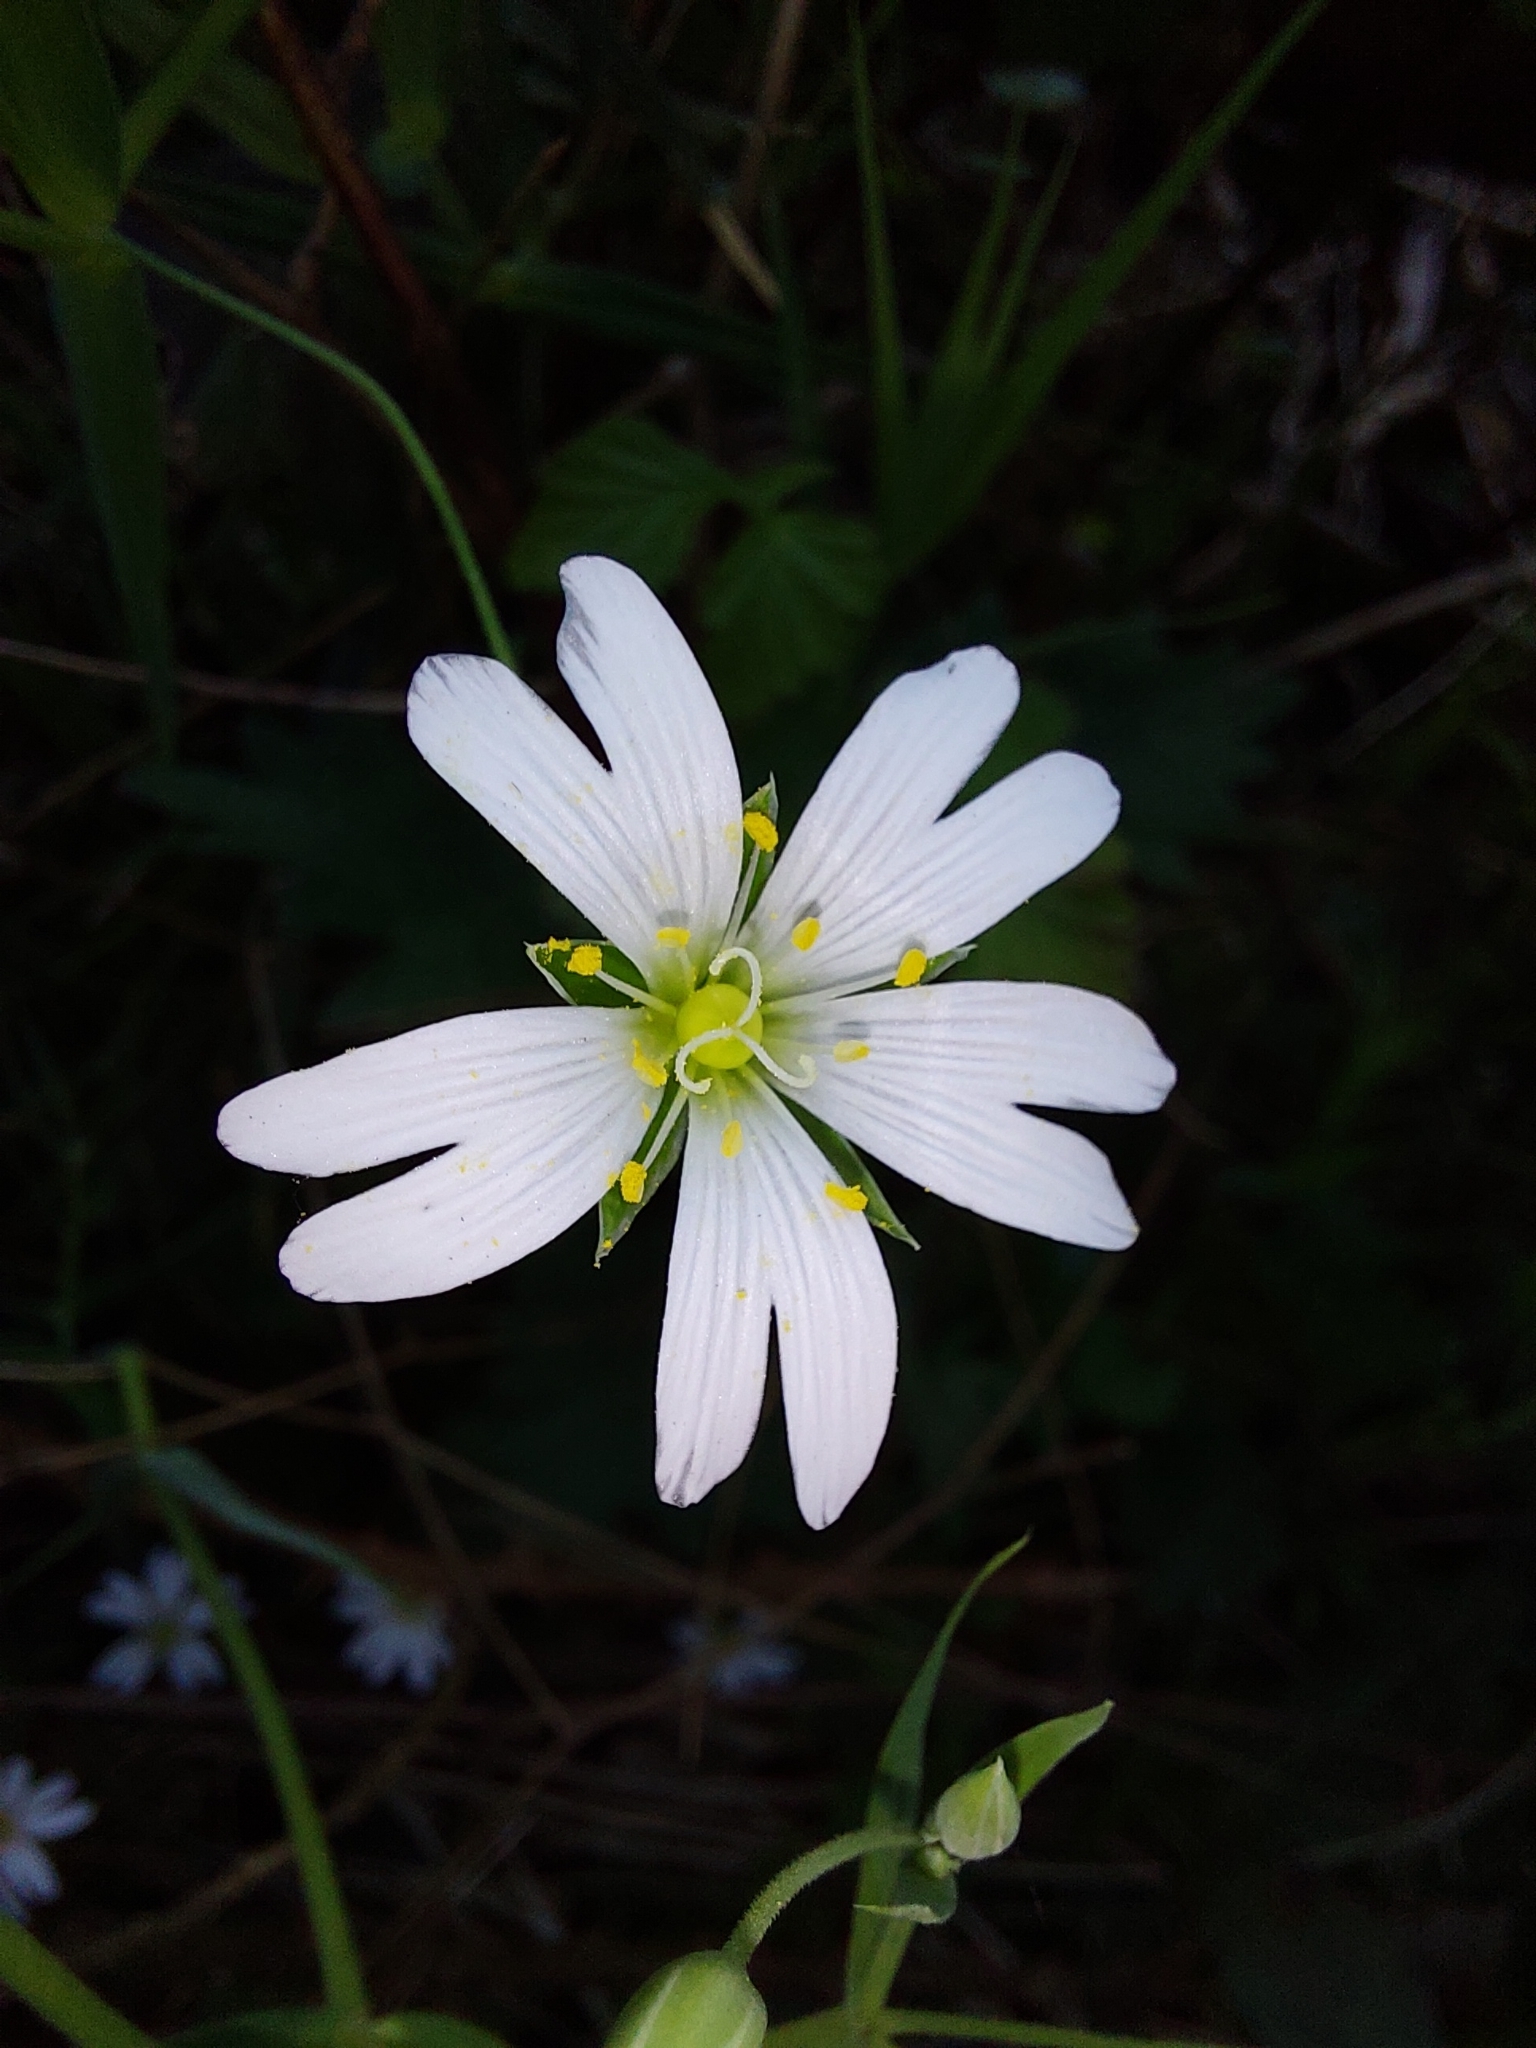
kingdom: Plantae
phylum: Tracheophyta
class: Magnoliopsida
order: Caryophyllales
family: Caryophyllaceae
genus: Rabelera
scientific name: Rabelera holostea
